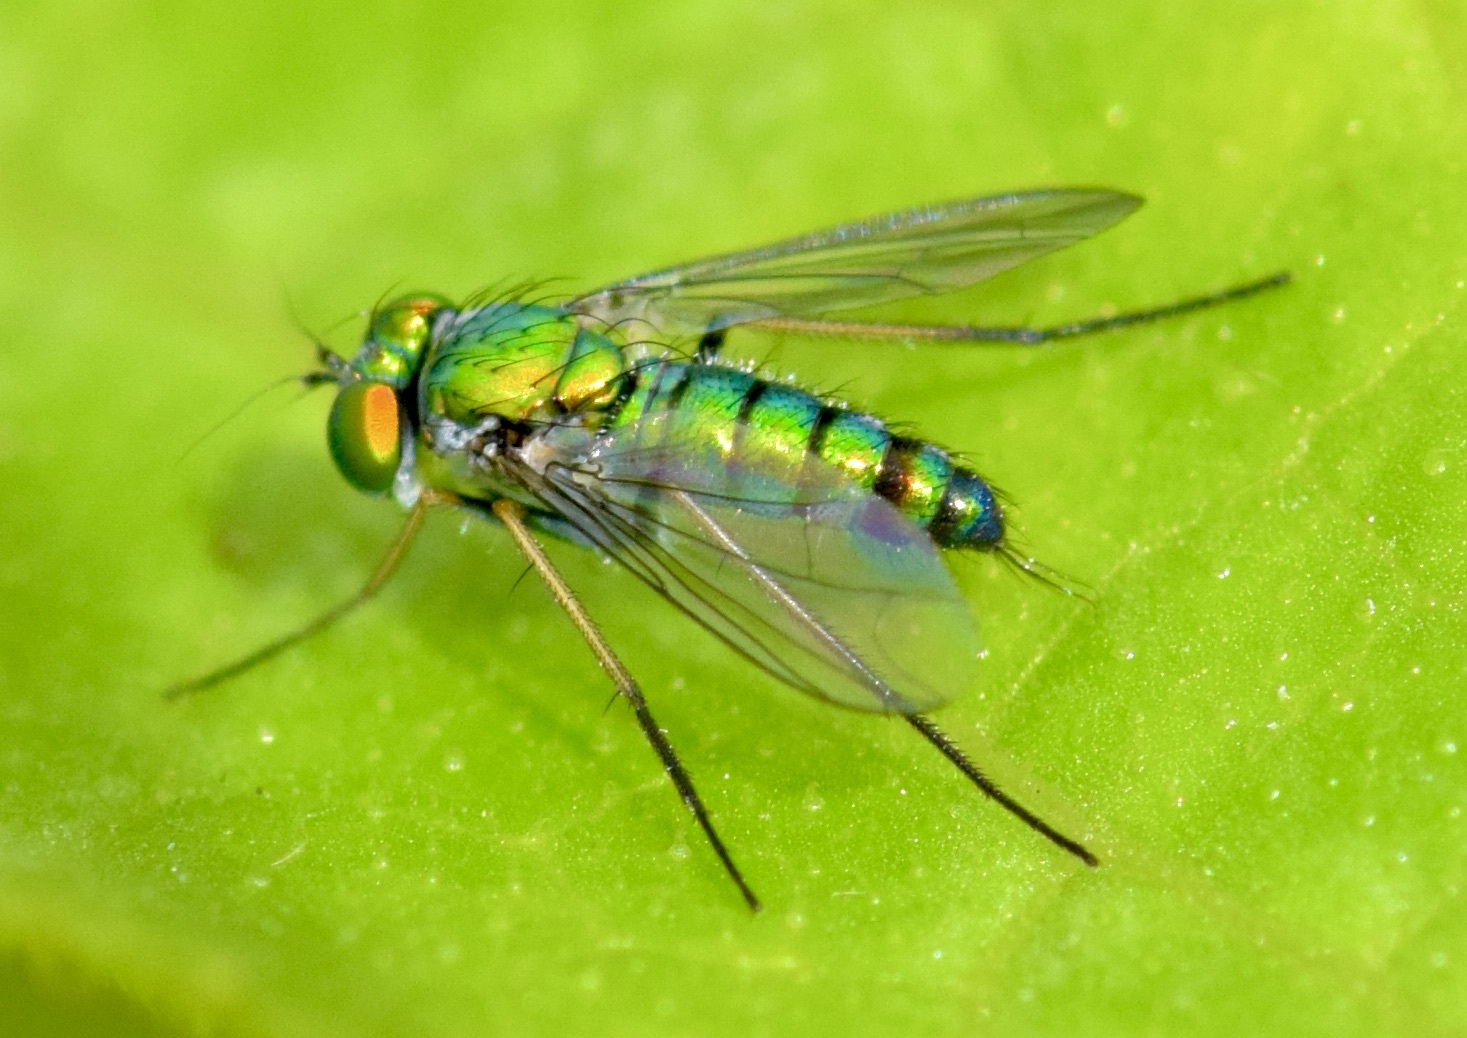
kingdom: Animalia
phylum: Arthropoda
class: Insecta
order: Diptera
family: Dolichopodidae
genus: Condylostylus
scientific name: Condylostylus caudatus
